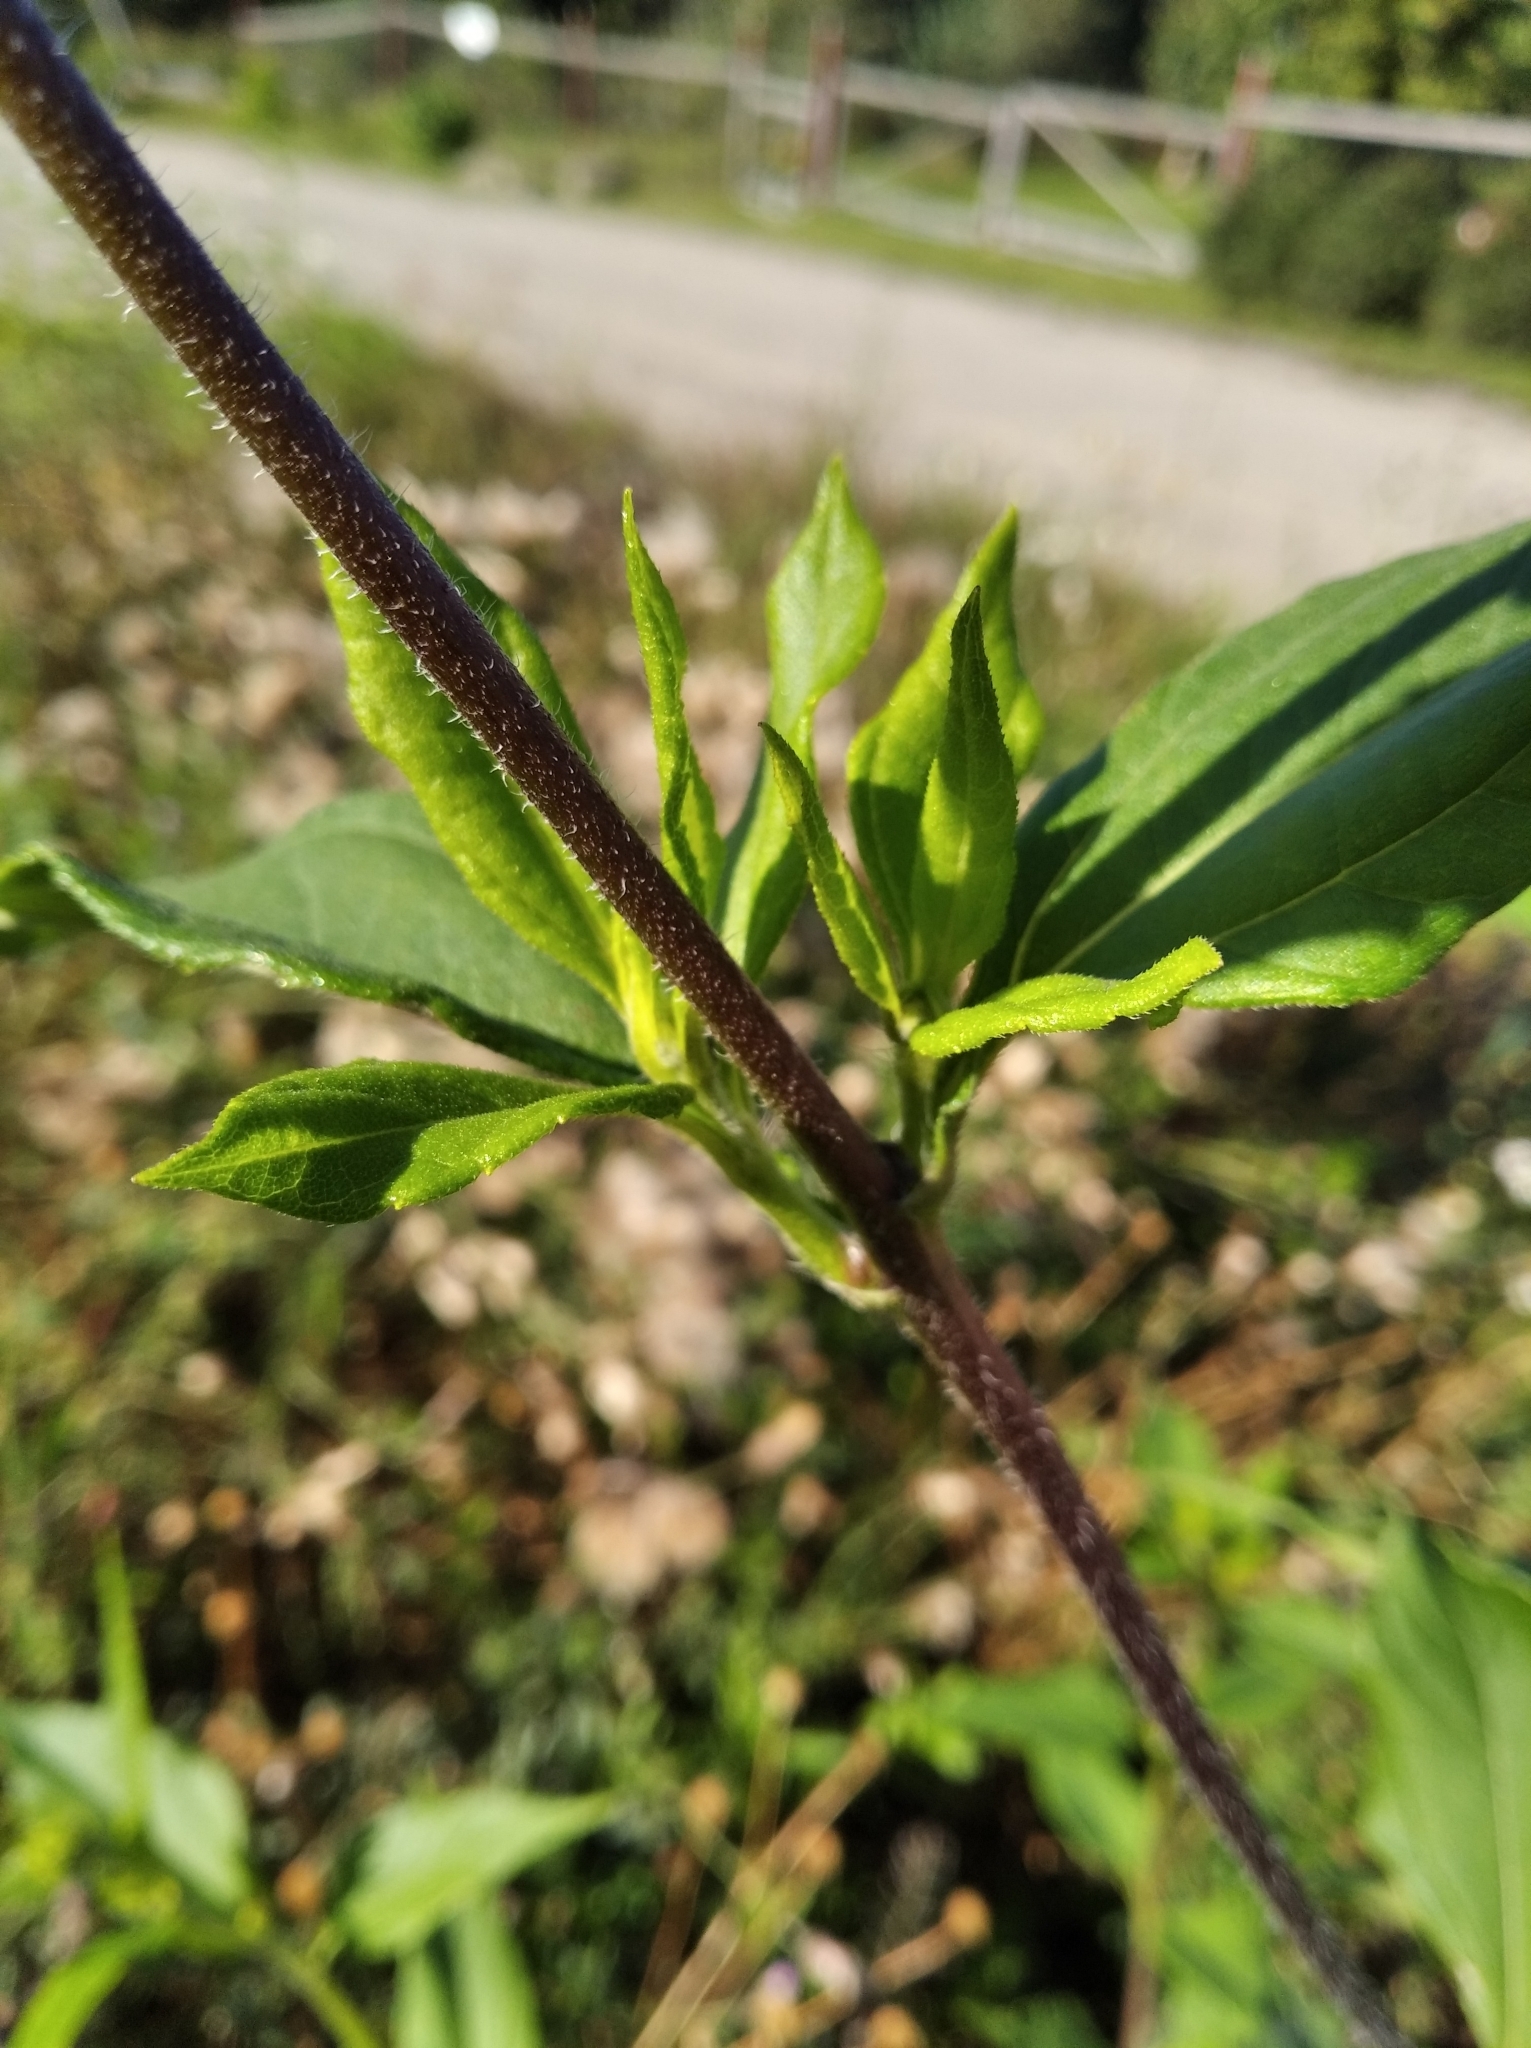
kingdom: Plantae
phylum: Tracheophyta
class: Magnoliopsida
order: Asterales
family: Asteraceae
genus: Helianthus
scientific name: Helianthus tuberosus
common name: Jerusalem artichoke
